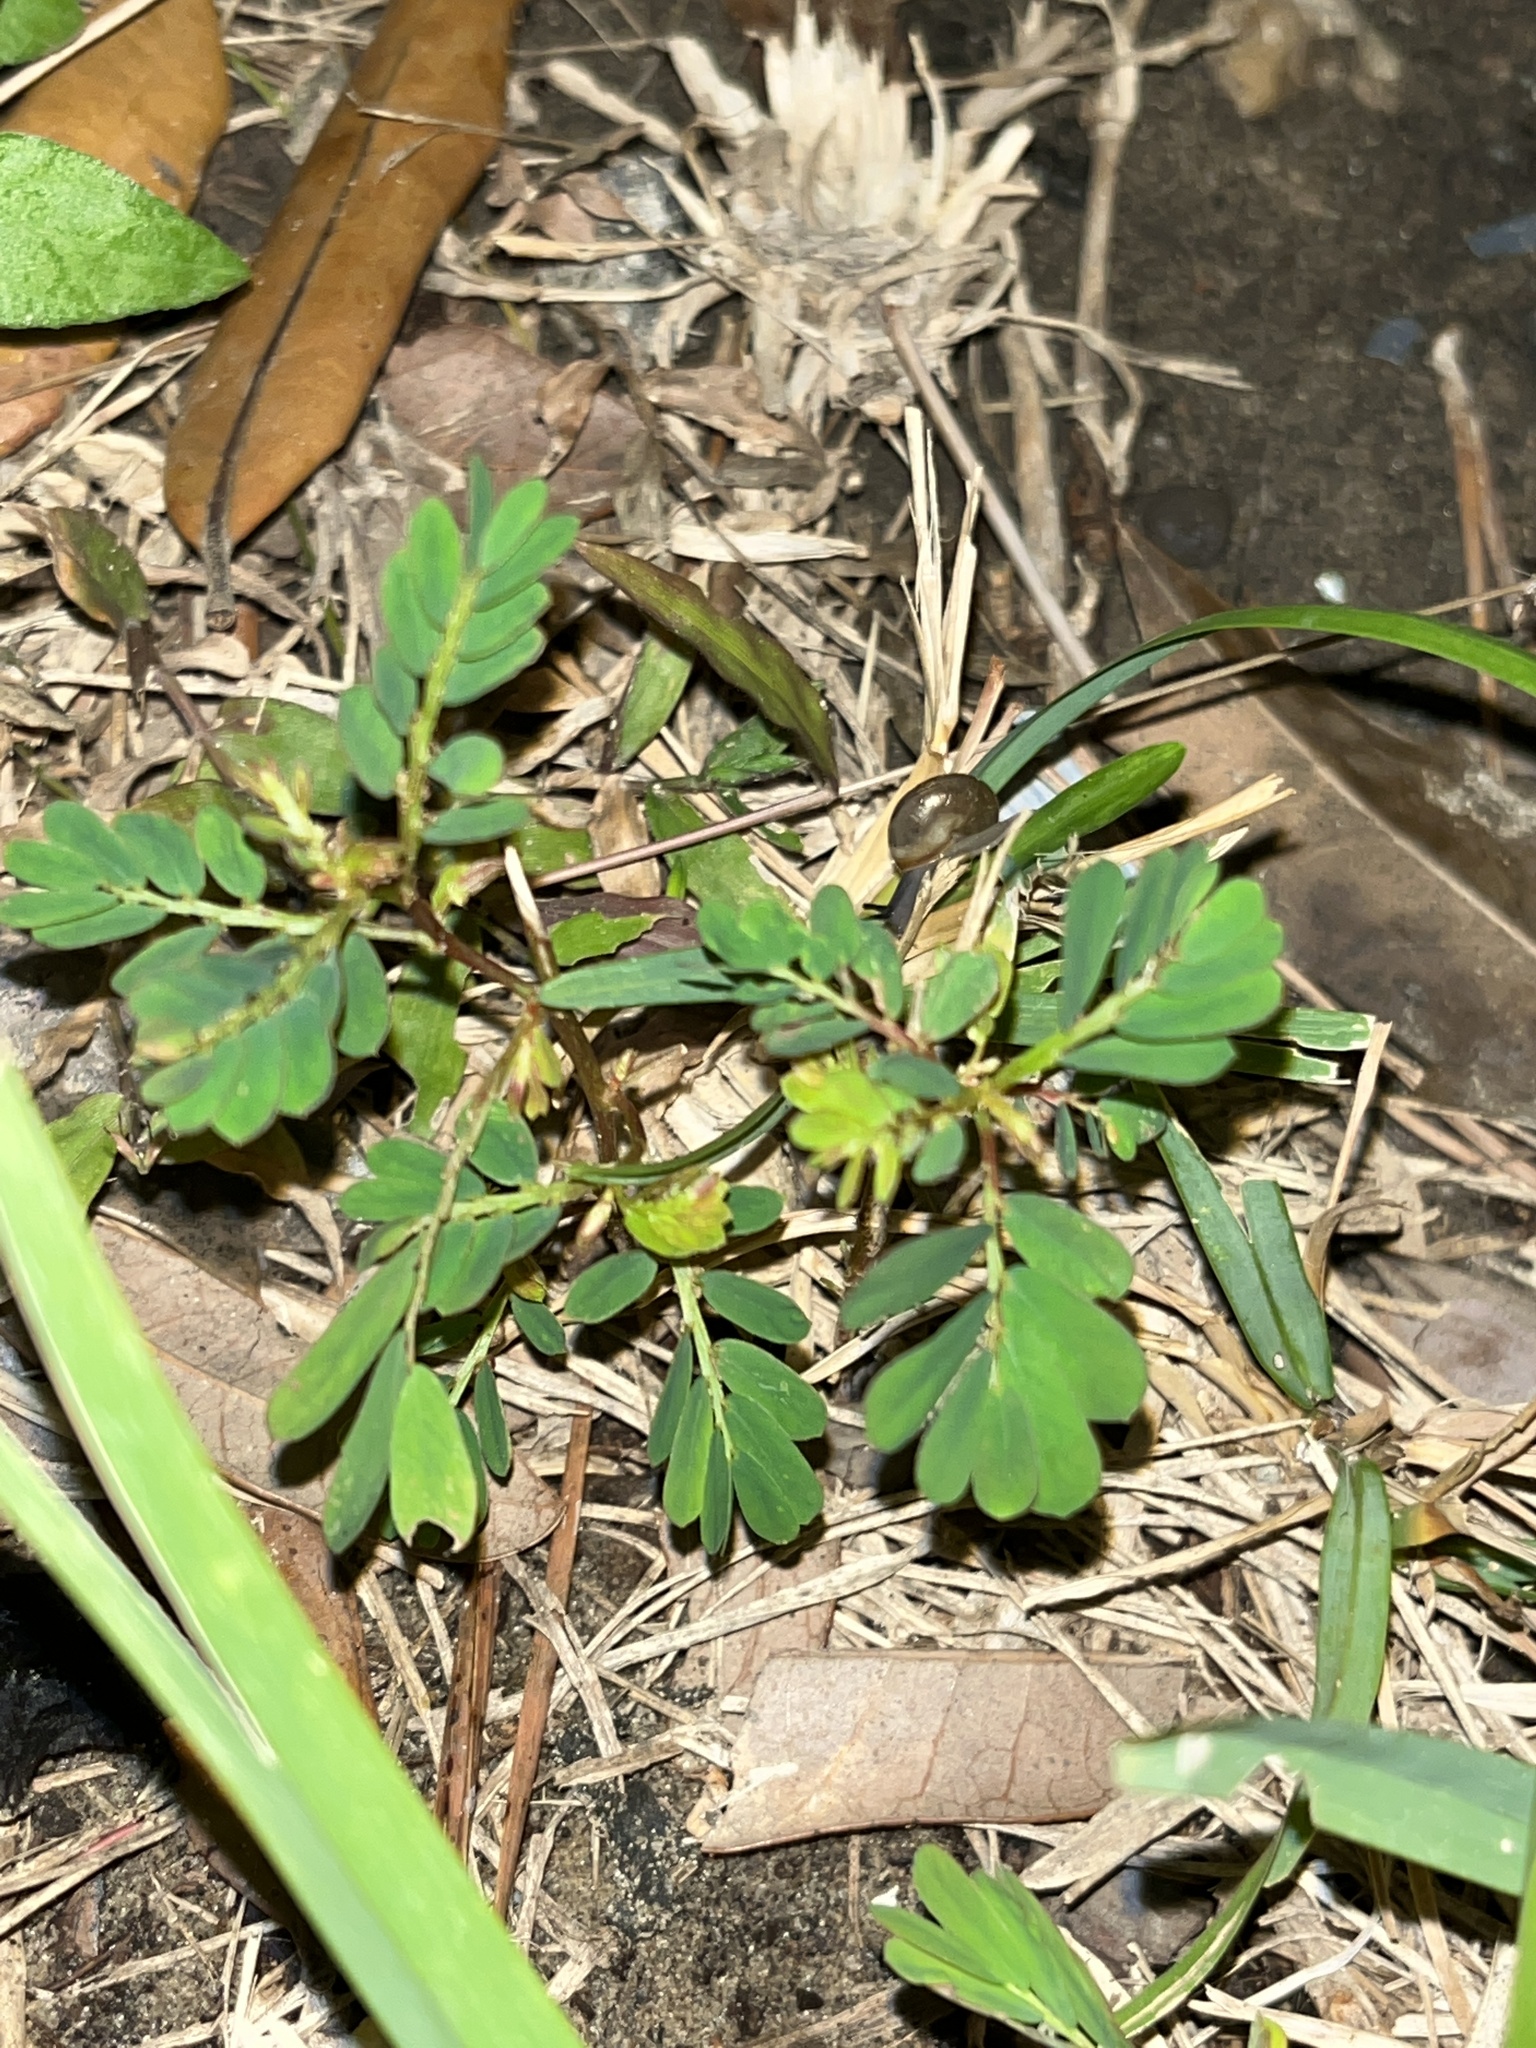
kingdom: Plantae
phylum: Tracheophyta
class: Magnoliopsida
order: Malpighiales
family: Phyllanthaceae
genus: Phyllanthus
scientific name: Phyllanthus urinaria
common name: Chamber bitter
